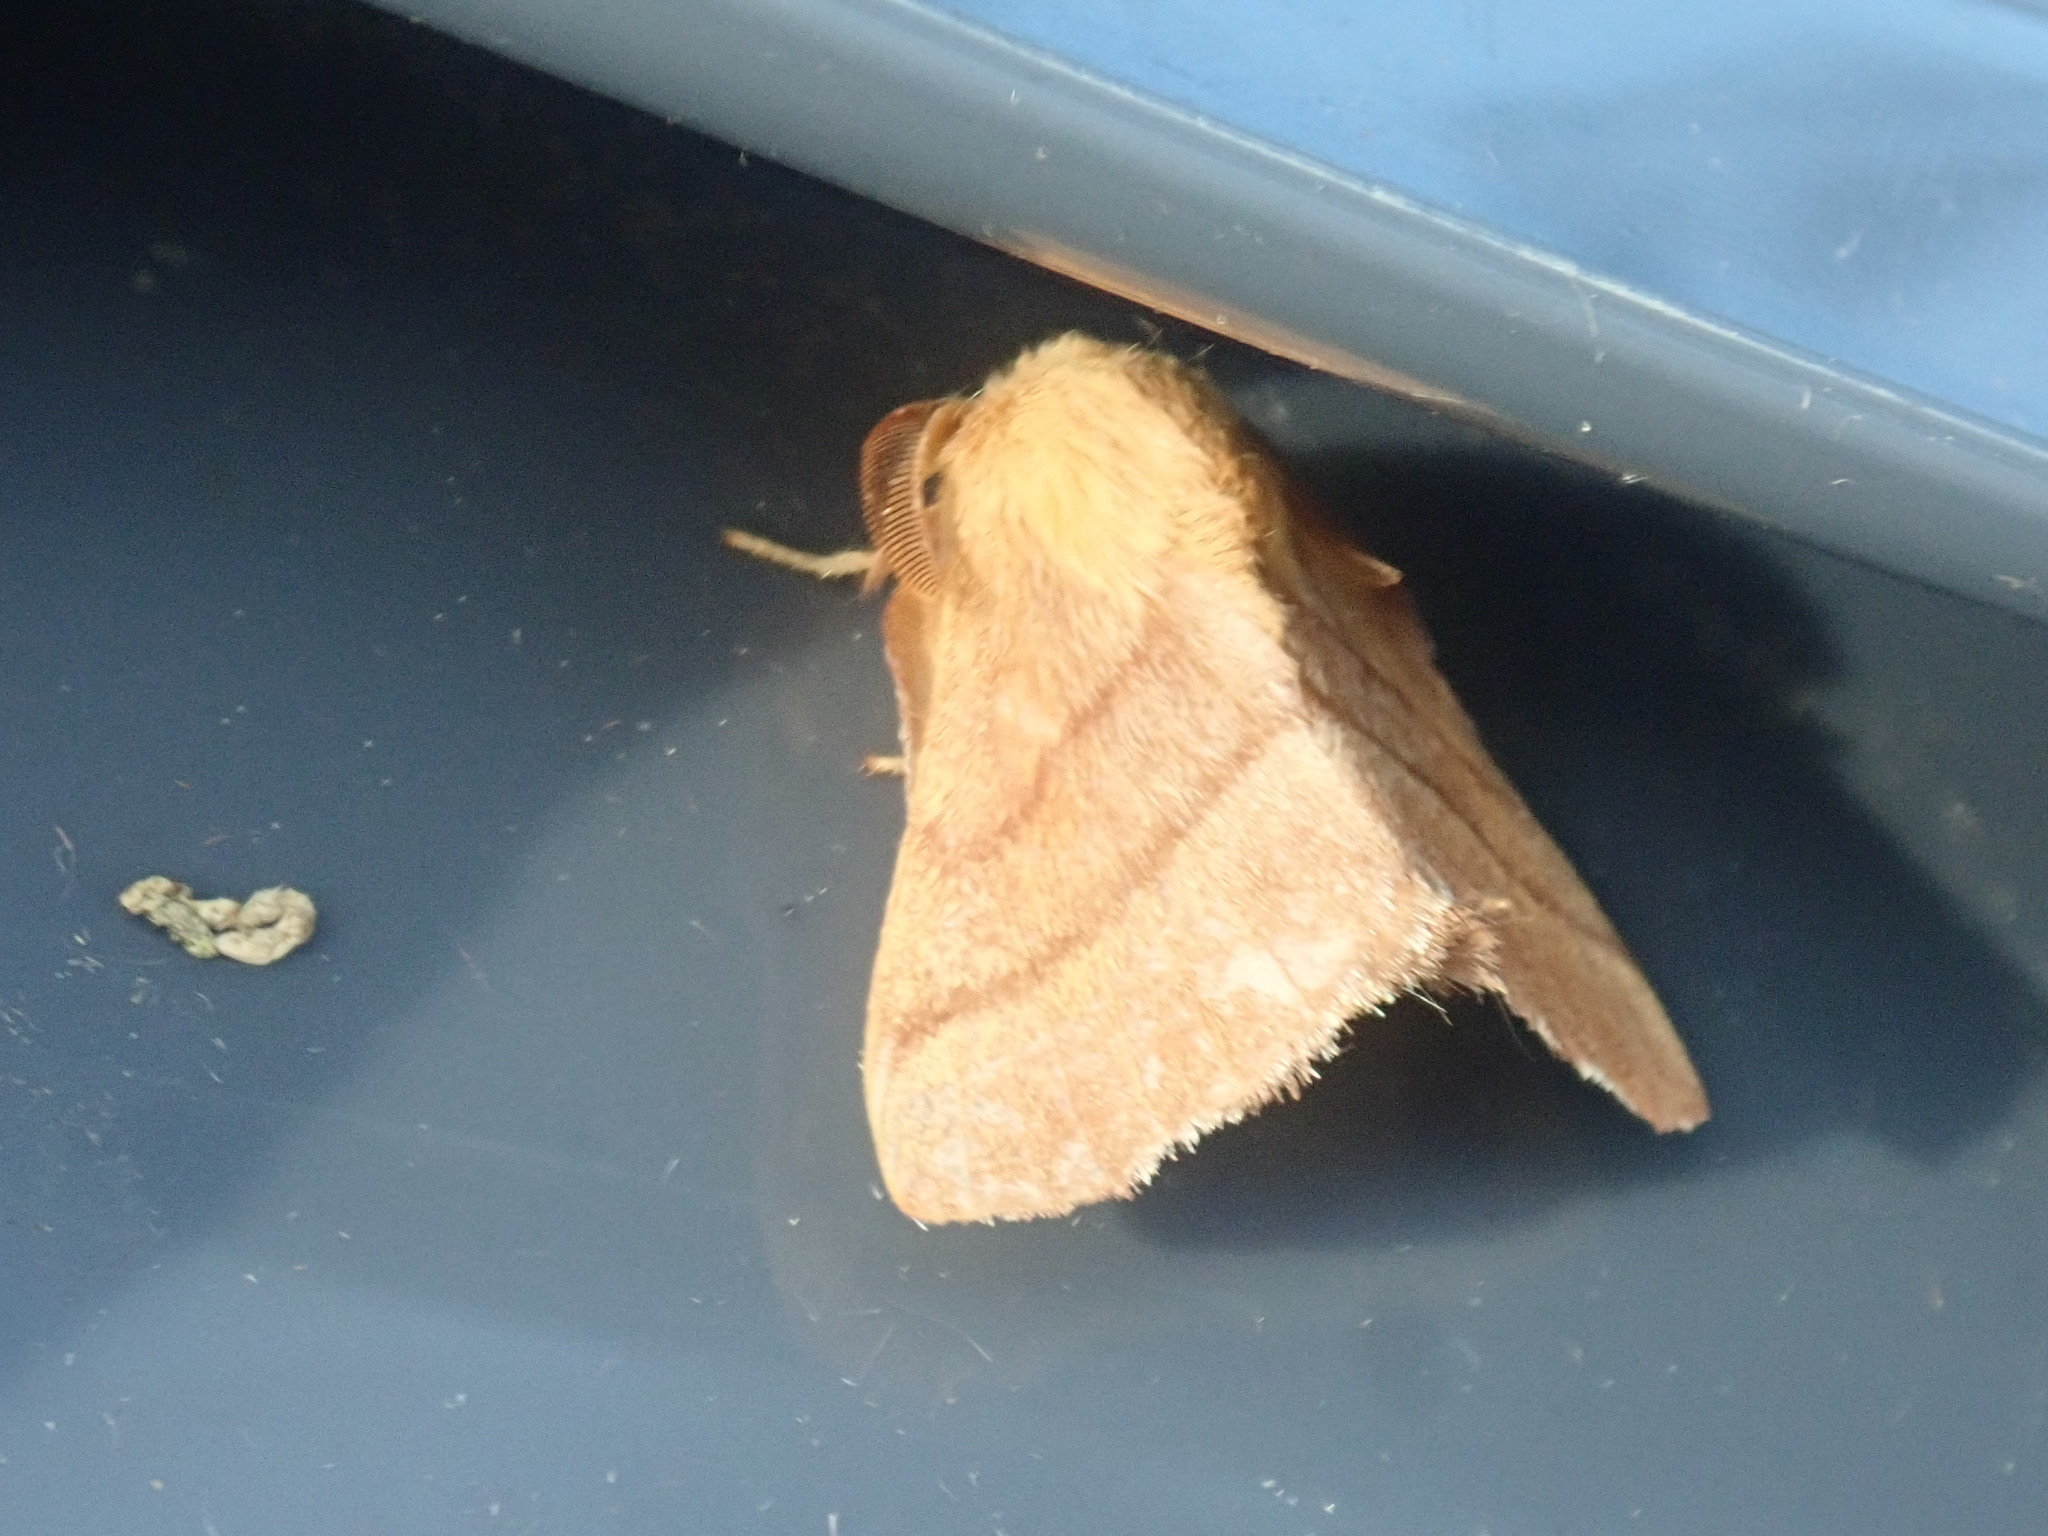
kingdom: Animalia
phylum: Arthropoda
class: Insecta
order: Lepidoptera
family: Lasiocampidae
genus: Malacosoma
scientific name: Malacosoma disstria
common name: Forest tent caterpillar
